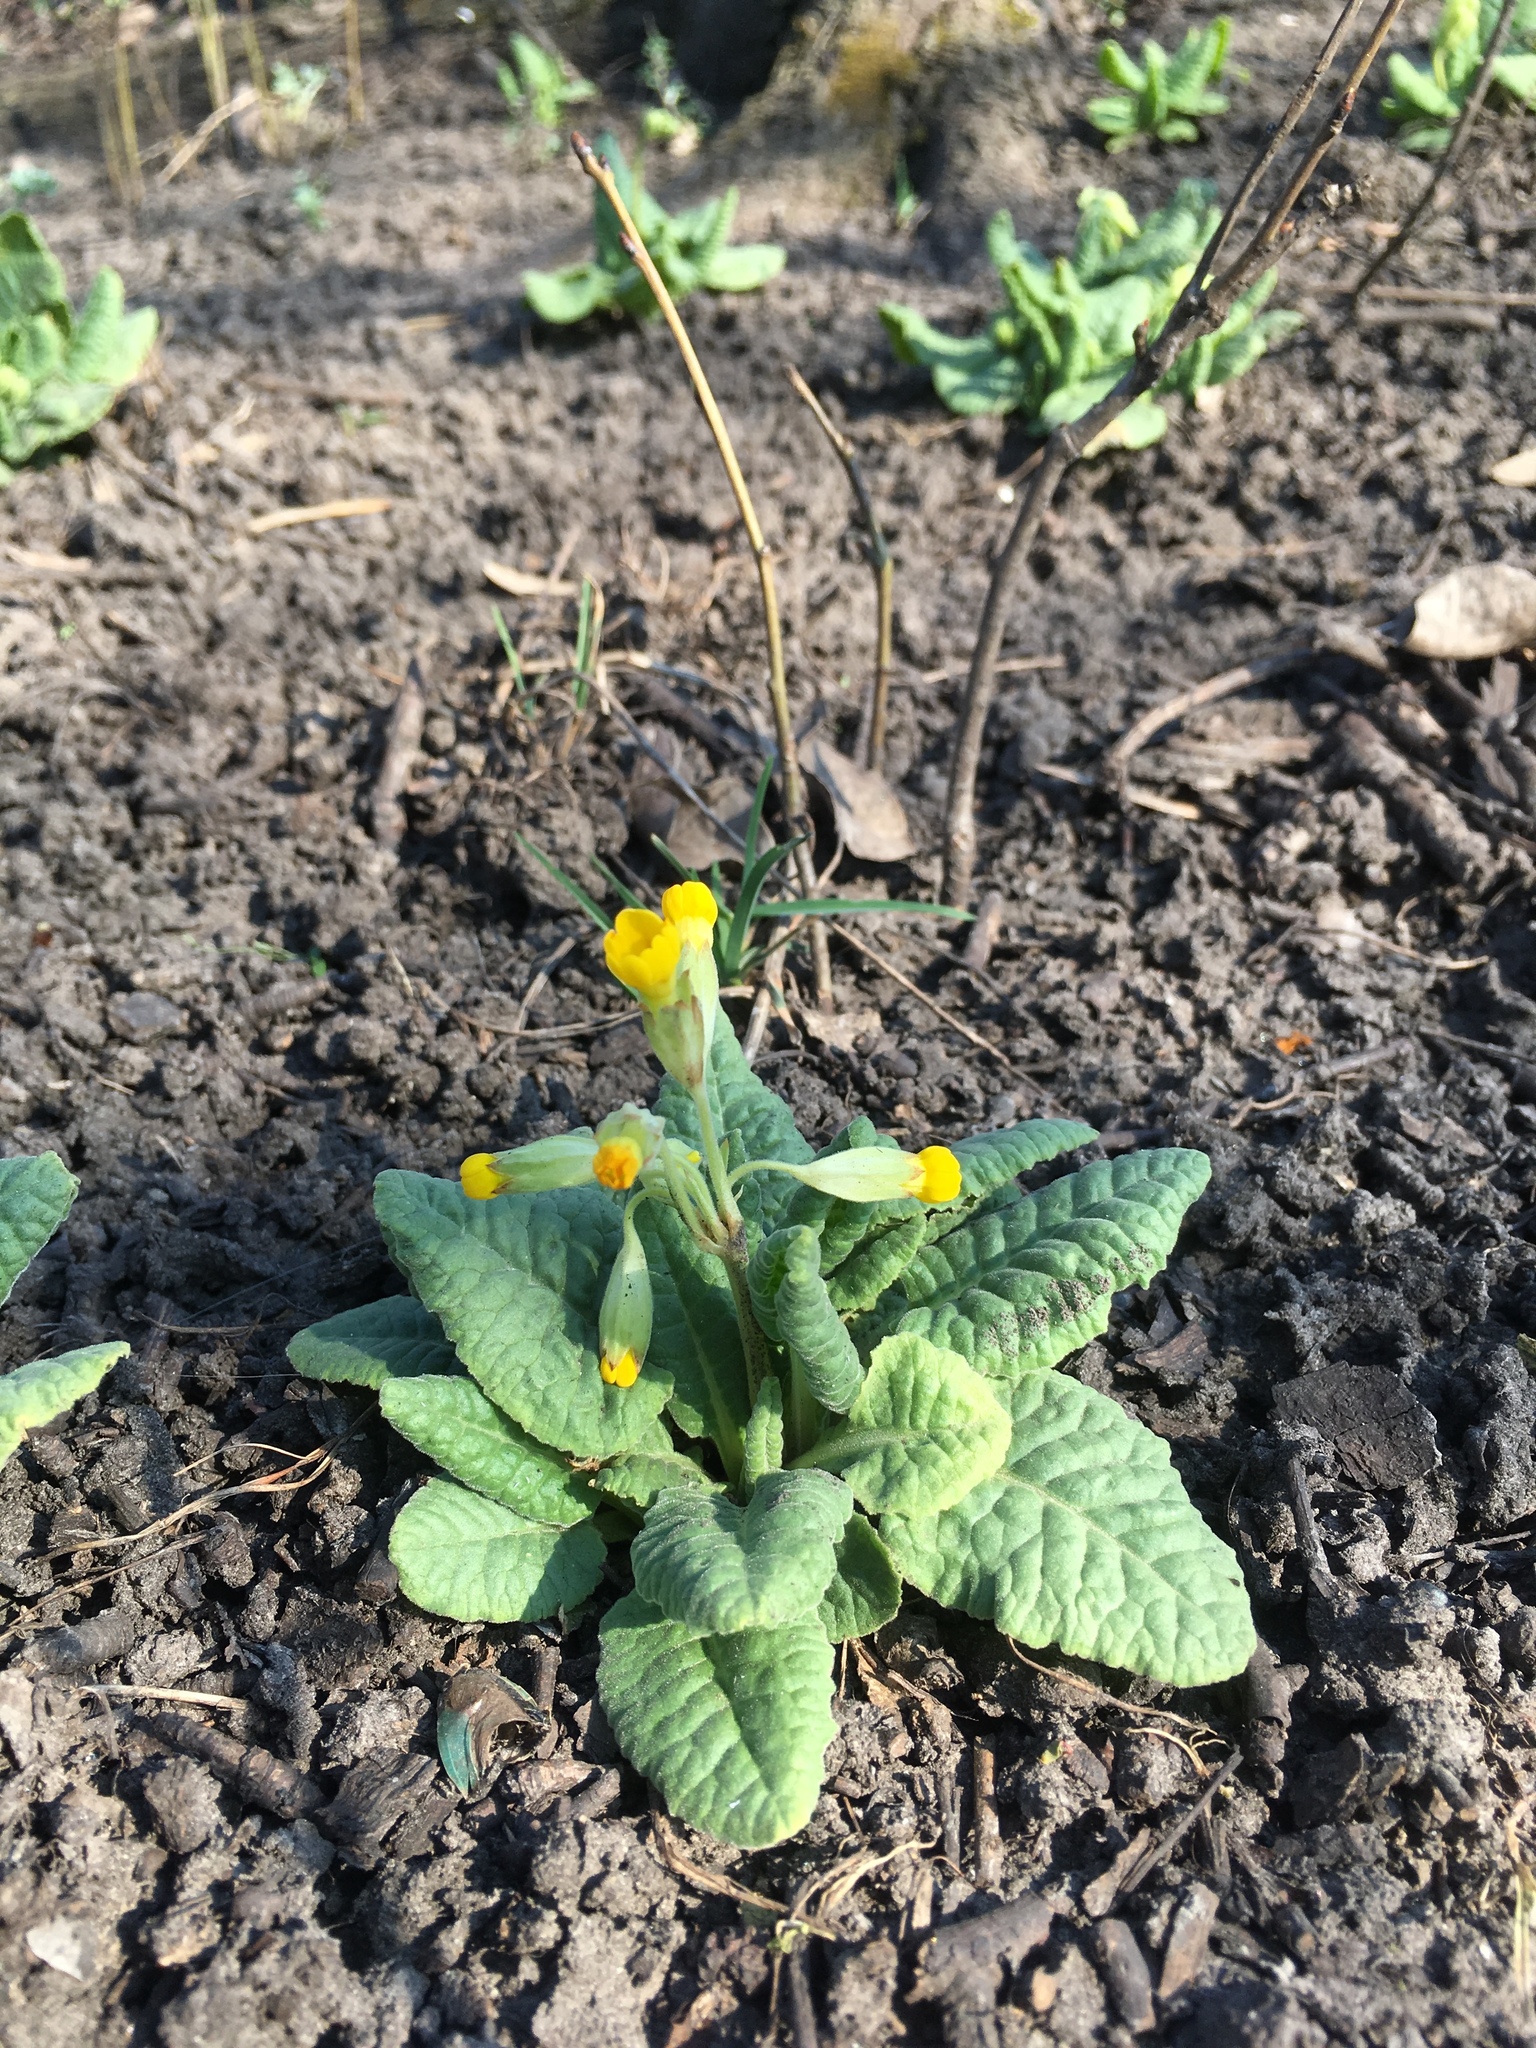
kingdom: Plantae
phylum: Tracheophyta
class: Magnoliopsida
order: Ericales
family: Primulaceae
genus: Primula
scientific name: Primula veris
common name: Cowslip
